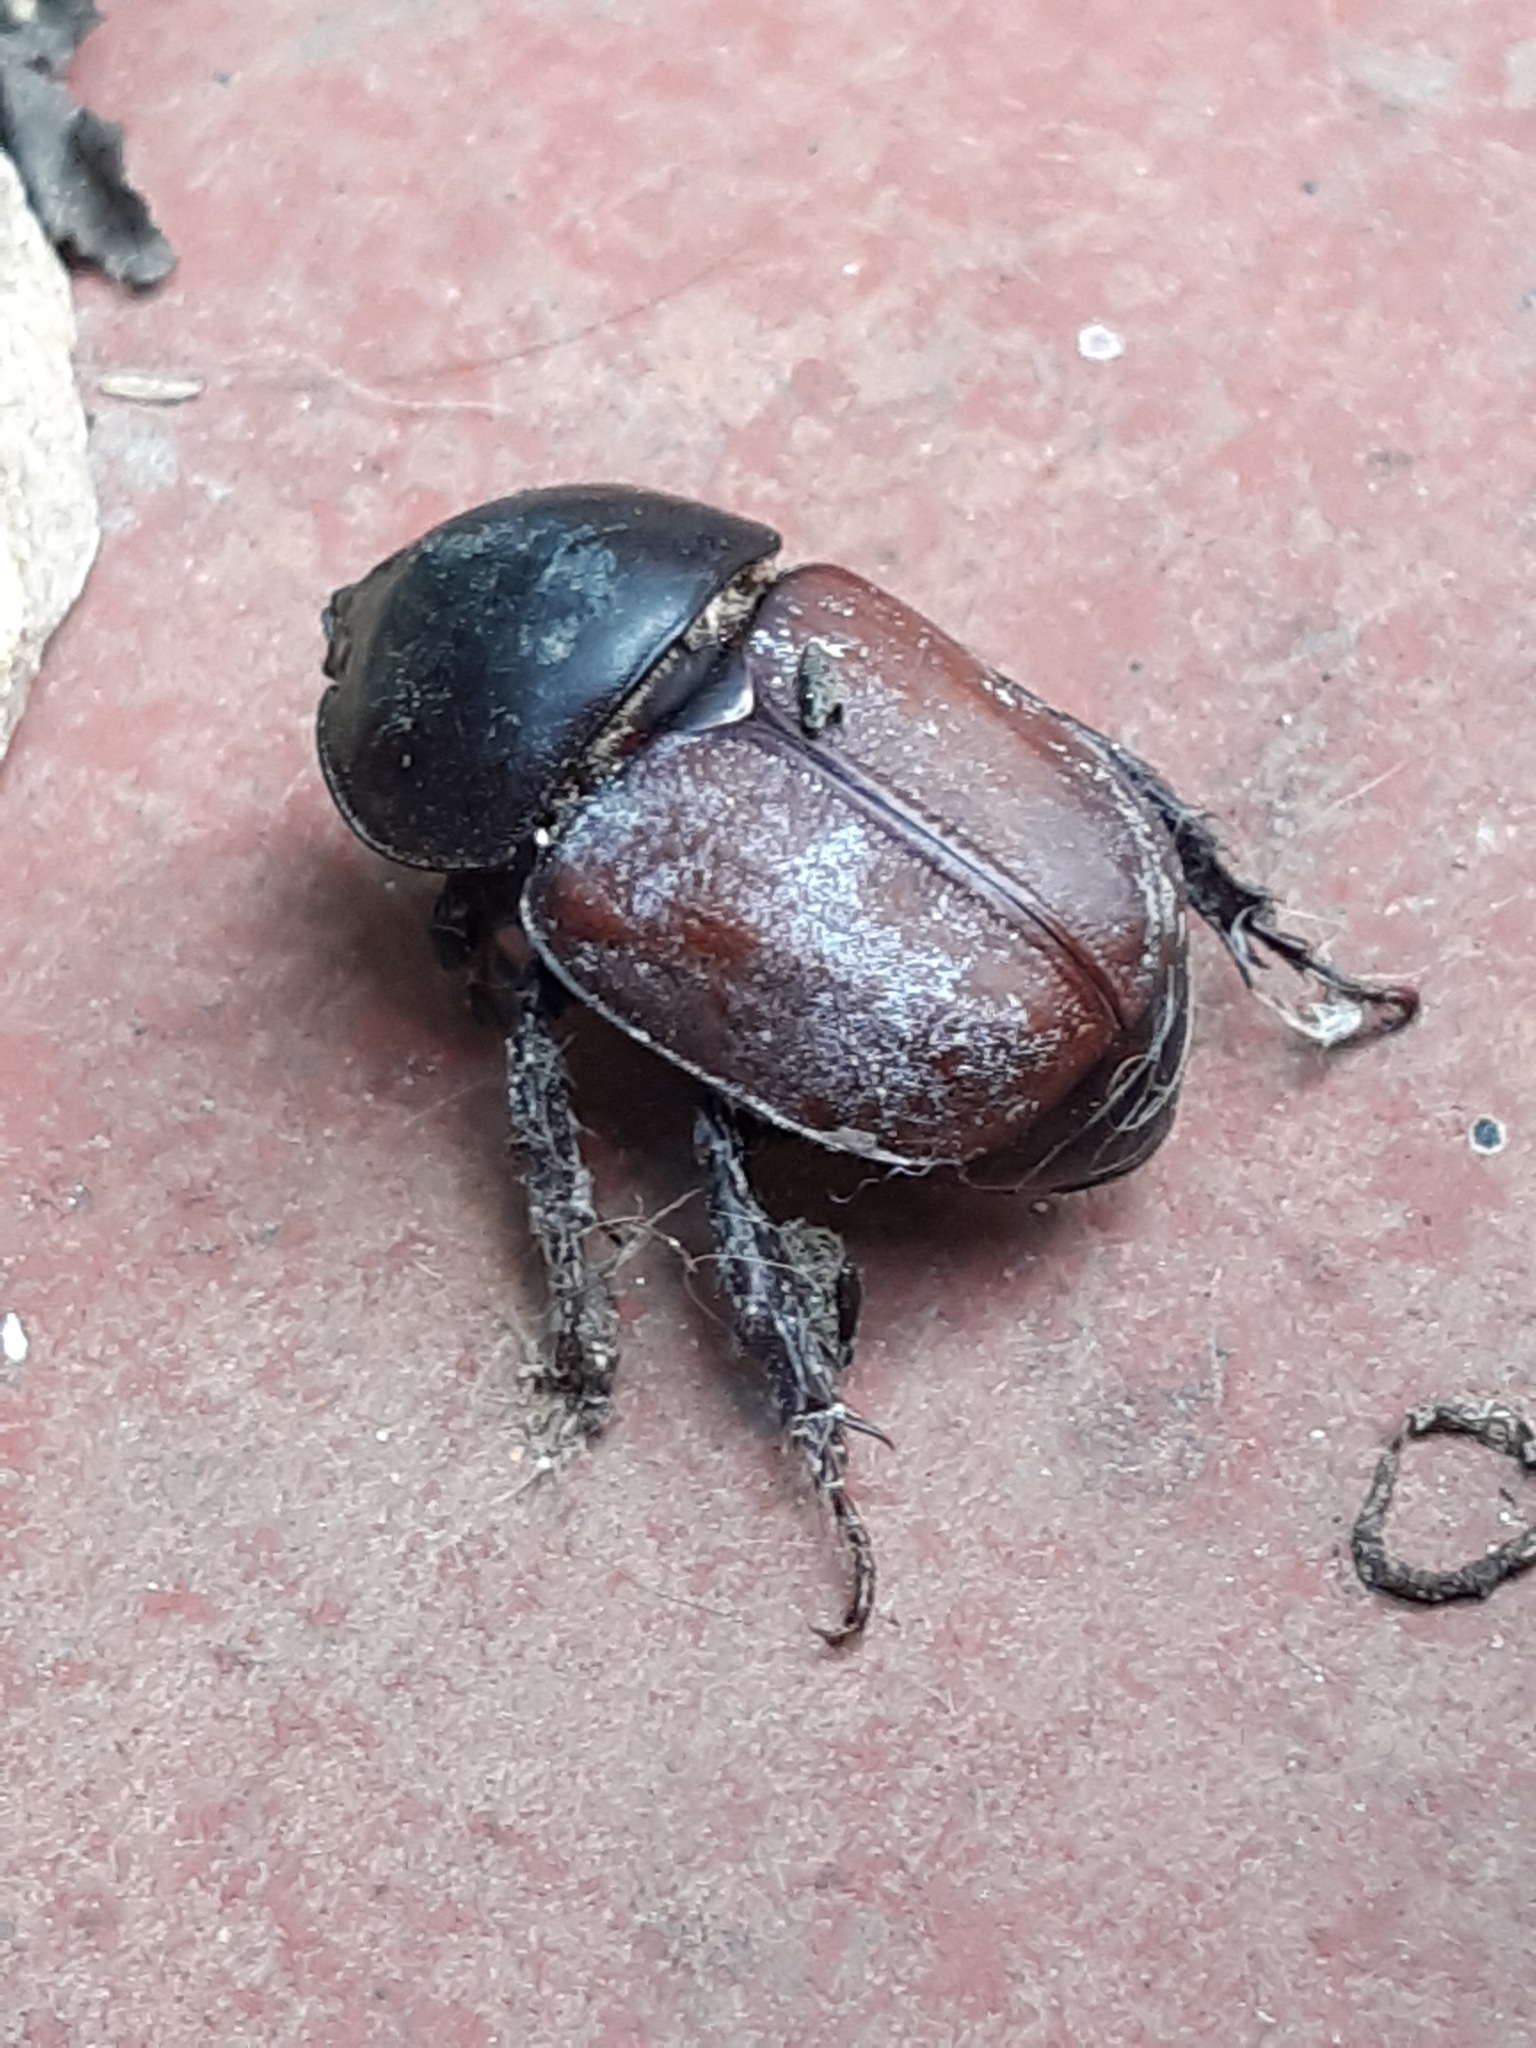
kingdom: Animalia
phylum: Arthropoda
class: Insecta
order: Coleoptera
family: Scarabaeidae
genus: Diloboderus
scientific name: Diloboderus abderus
